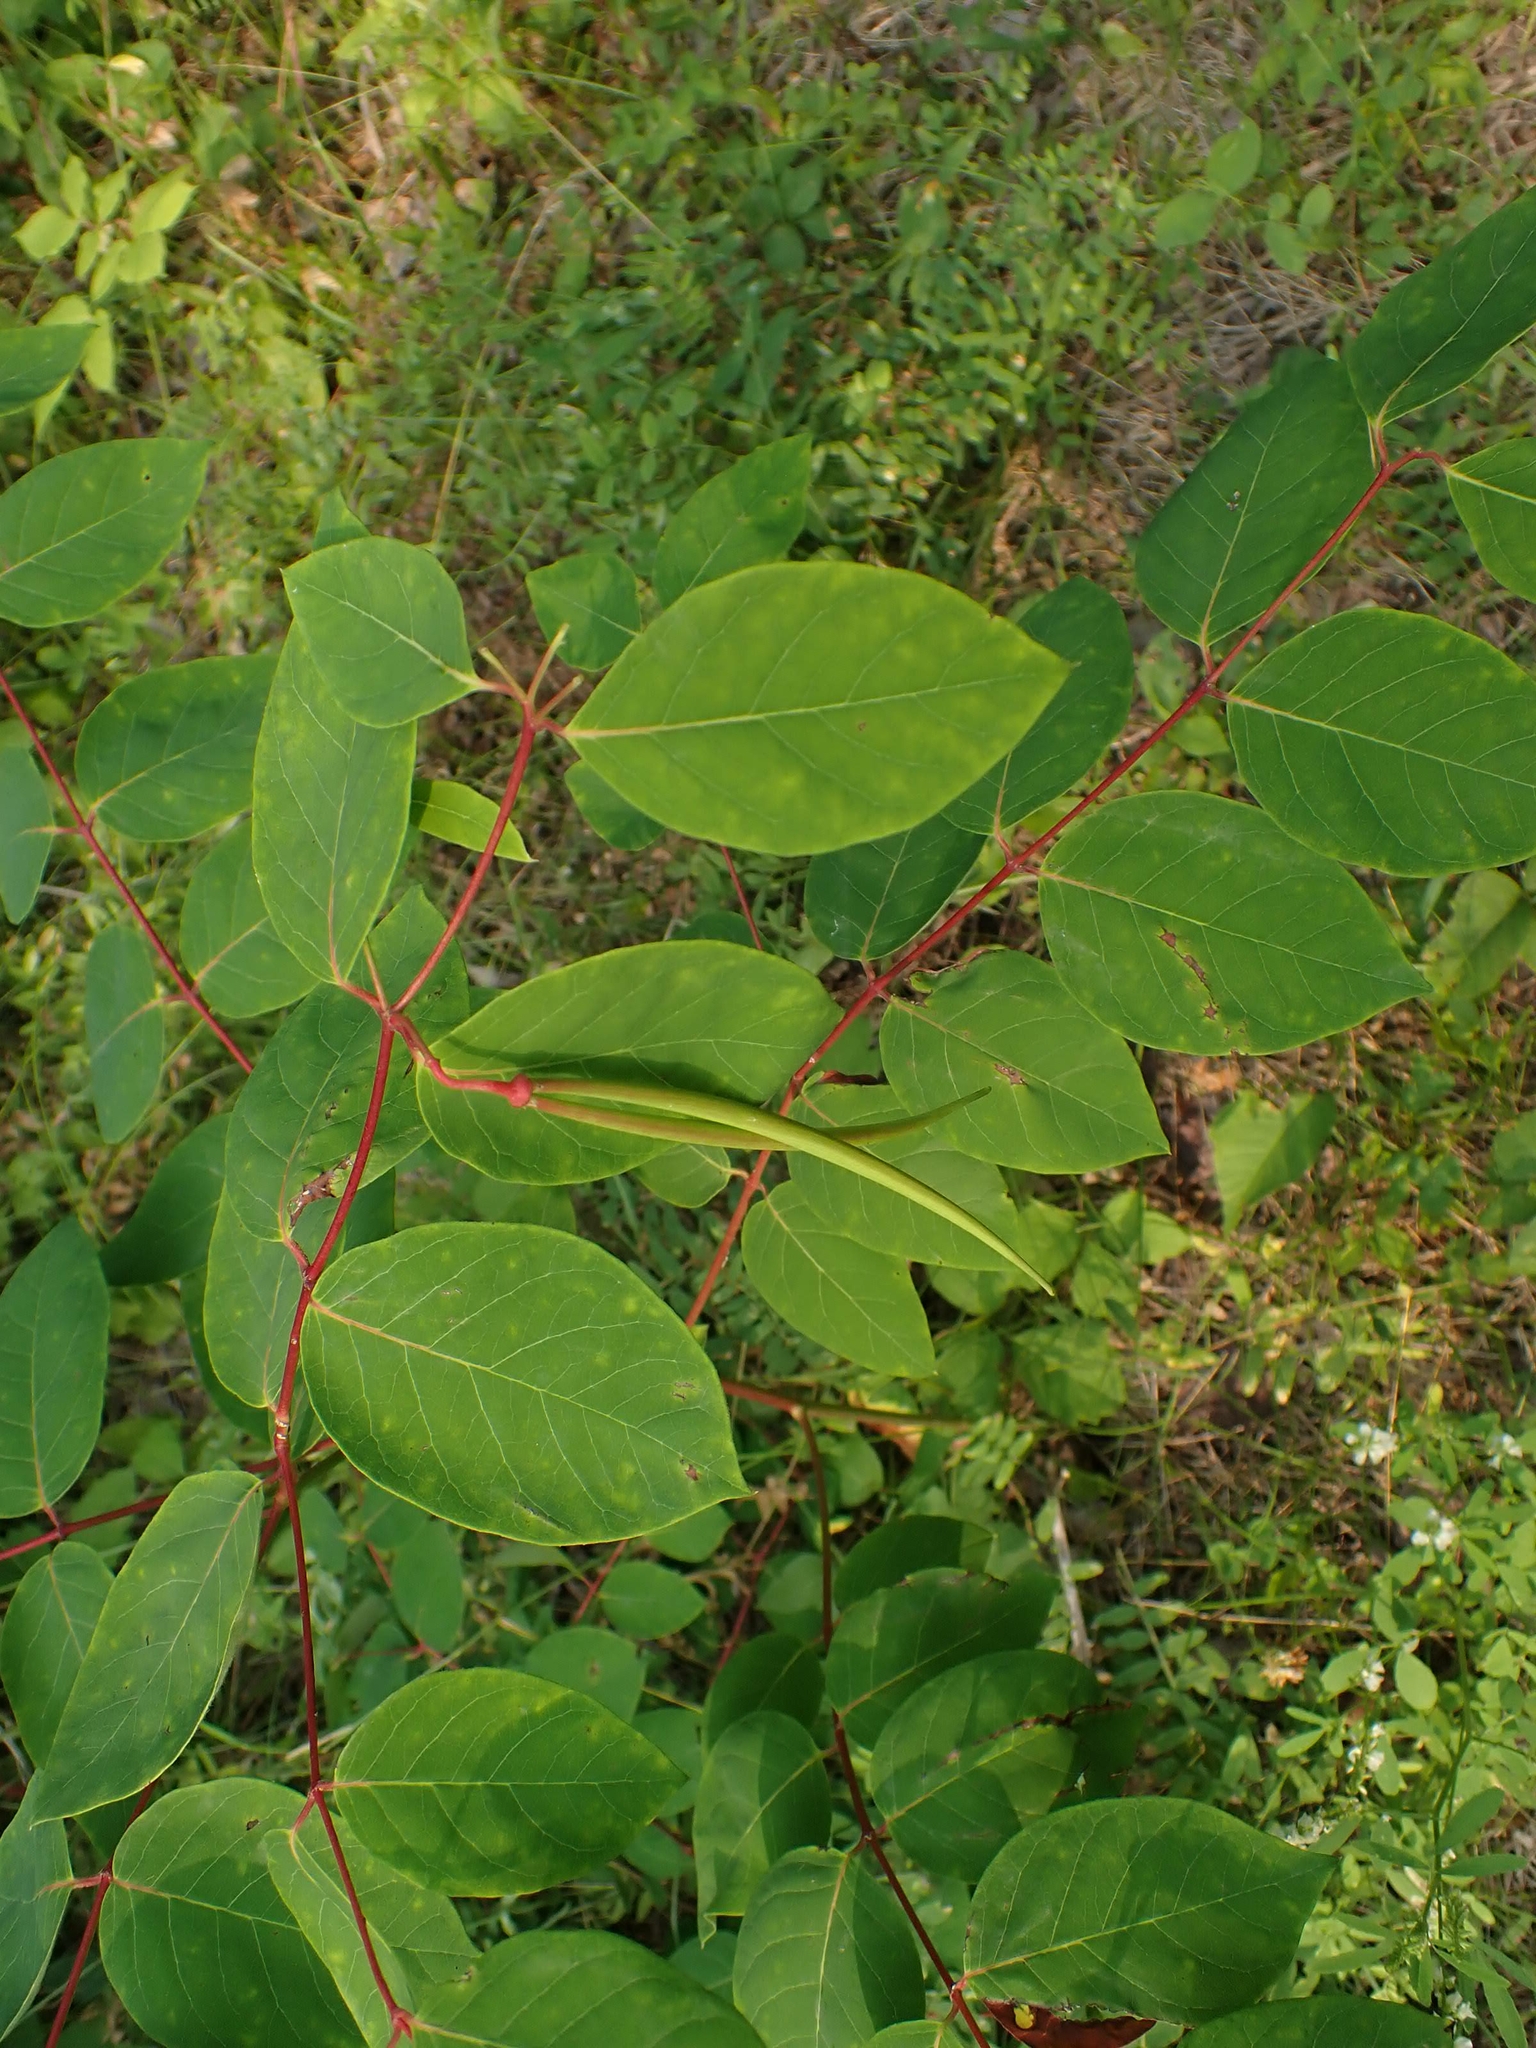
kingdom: Plantae
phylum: Tracheophyta
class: Magnoliopsida
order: Gentianales
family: Apocynaceae
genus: Apocynum
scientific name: Apocynum androsaemifolium
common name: Spreading dogbane
